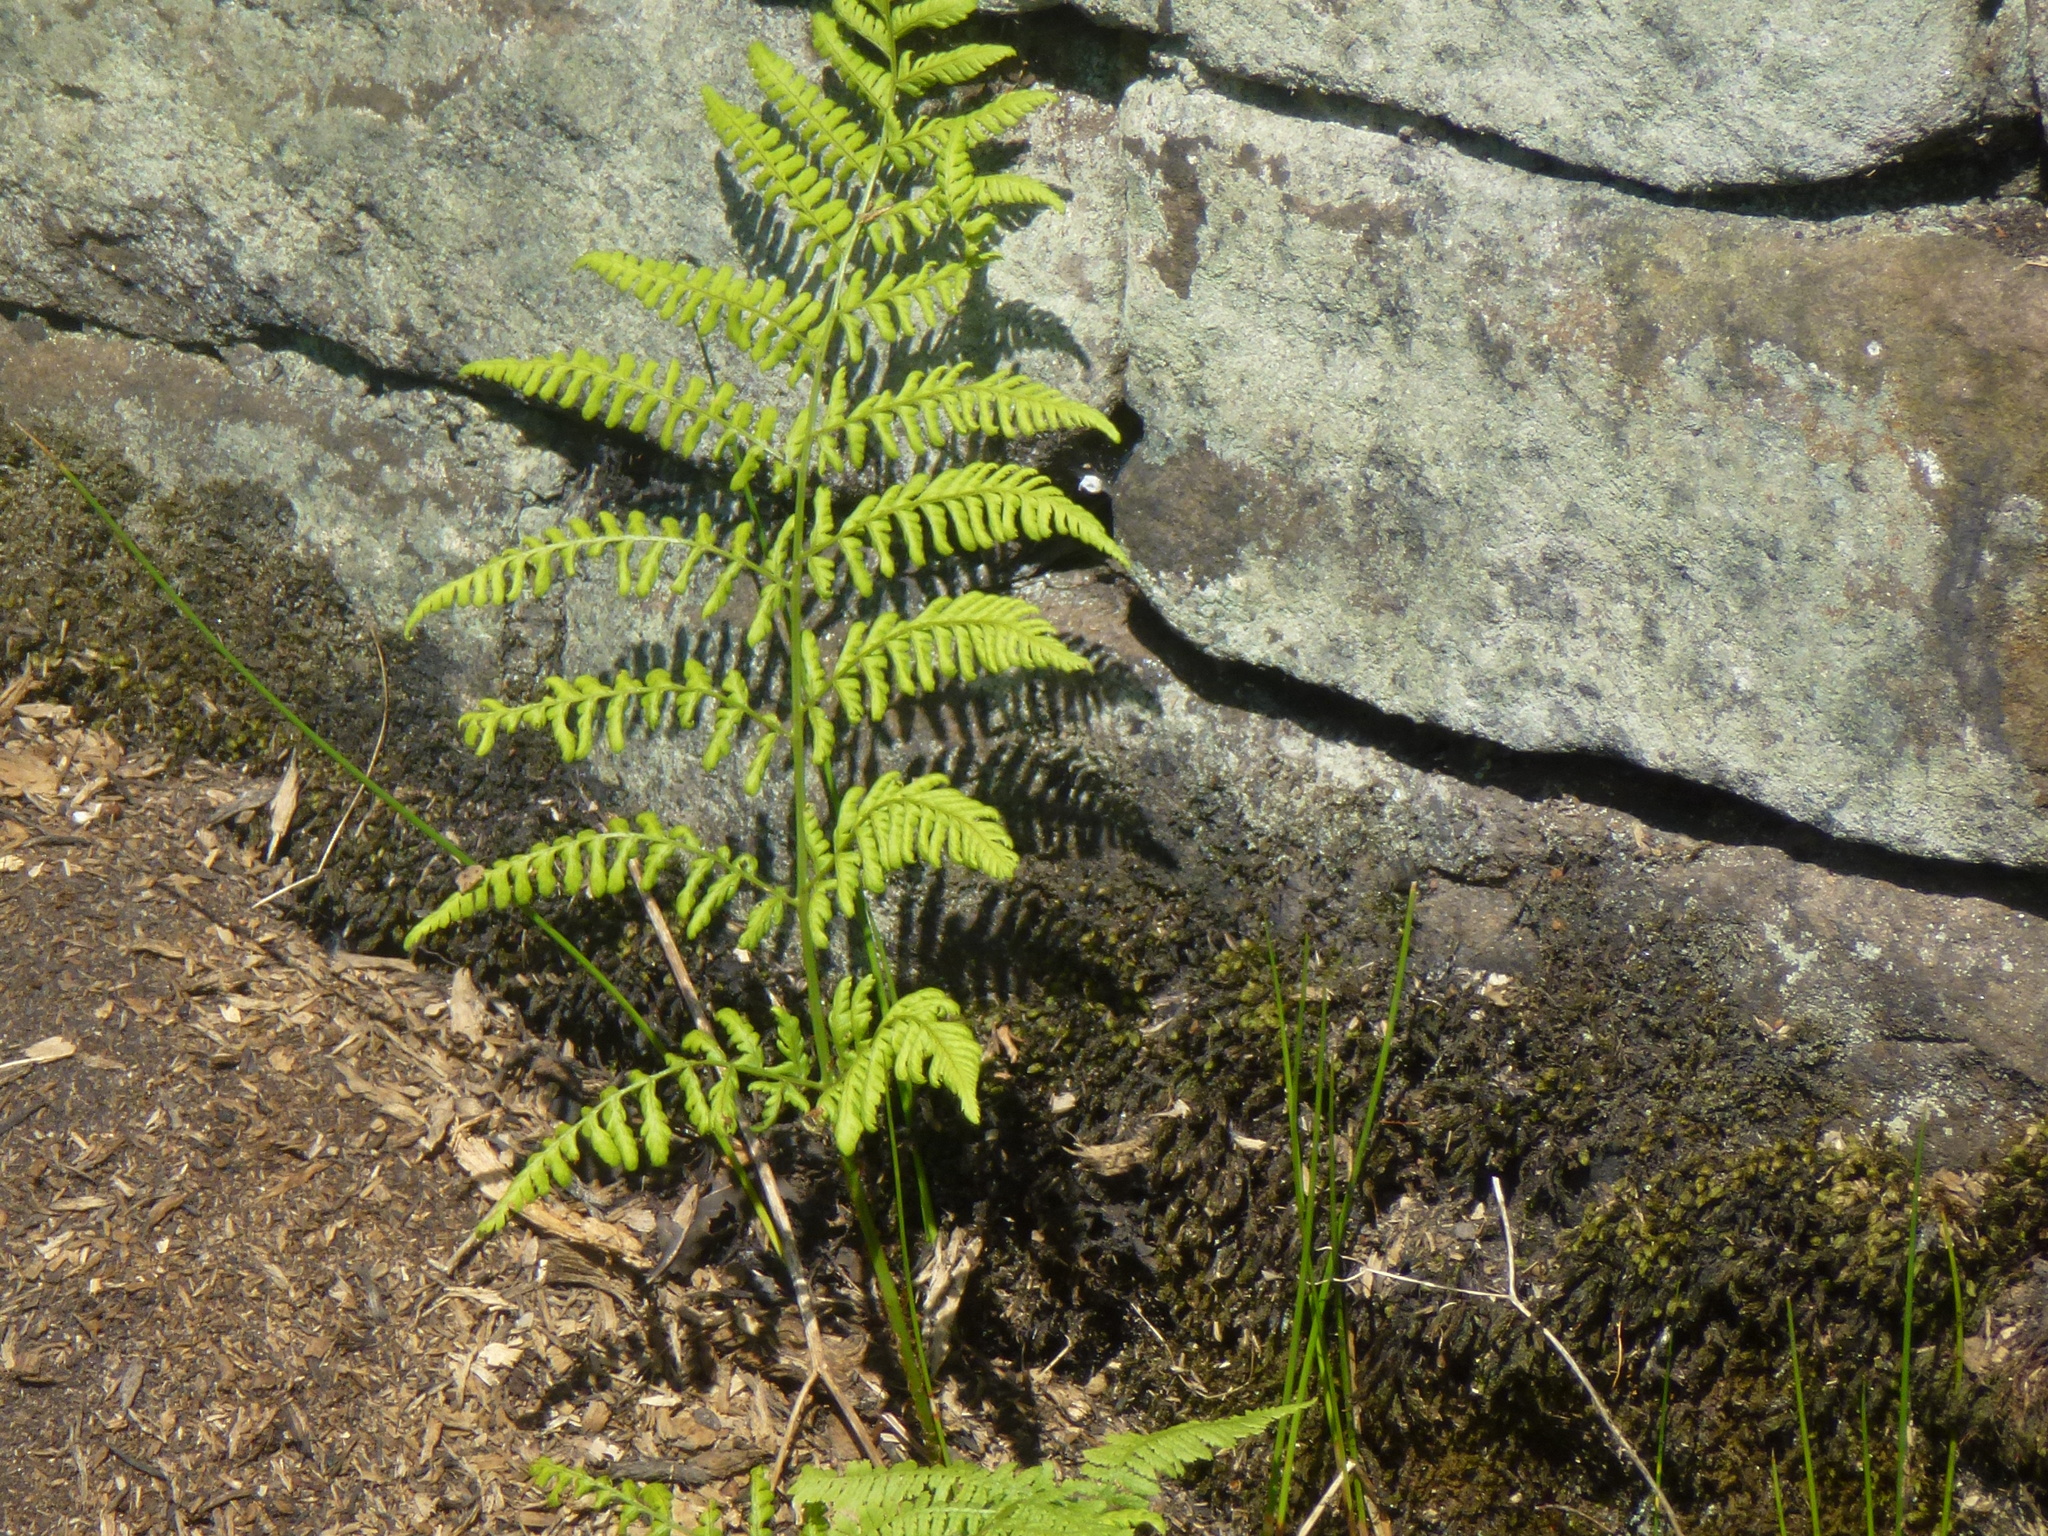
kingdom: Plantae
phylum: Tracheophyta
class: Polypodiopsida
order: Polypodiales
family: Dryopteridaceae
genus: Dryopteris
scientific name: Dryopteris dilatata
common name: Broad buckler-fern
